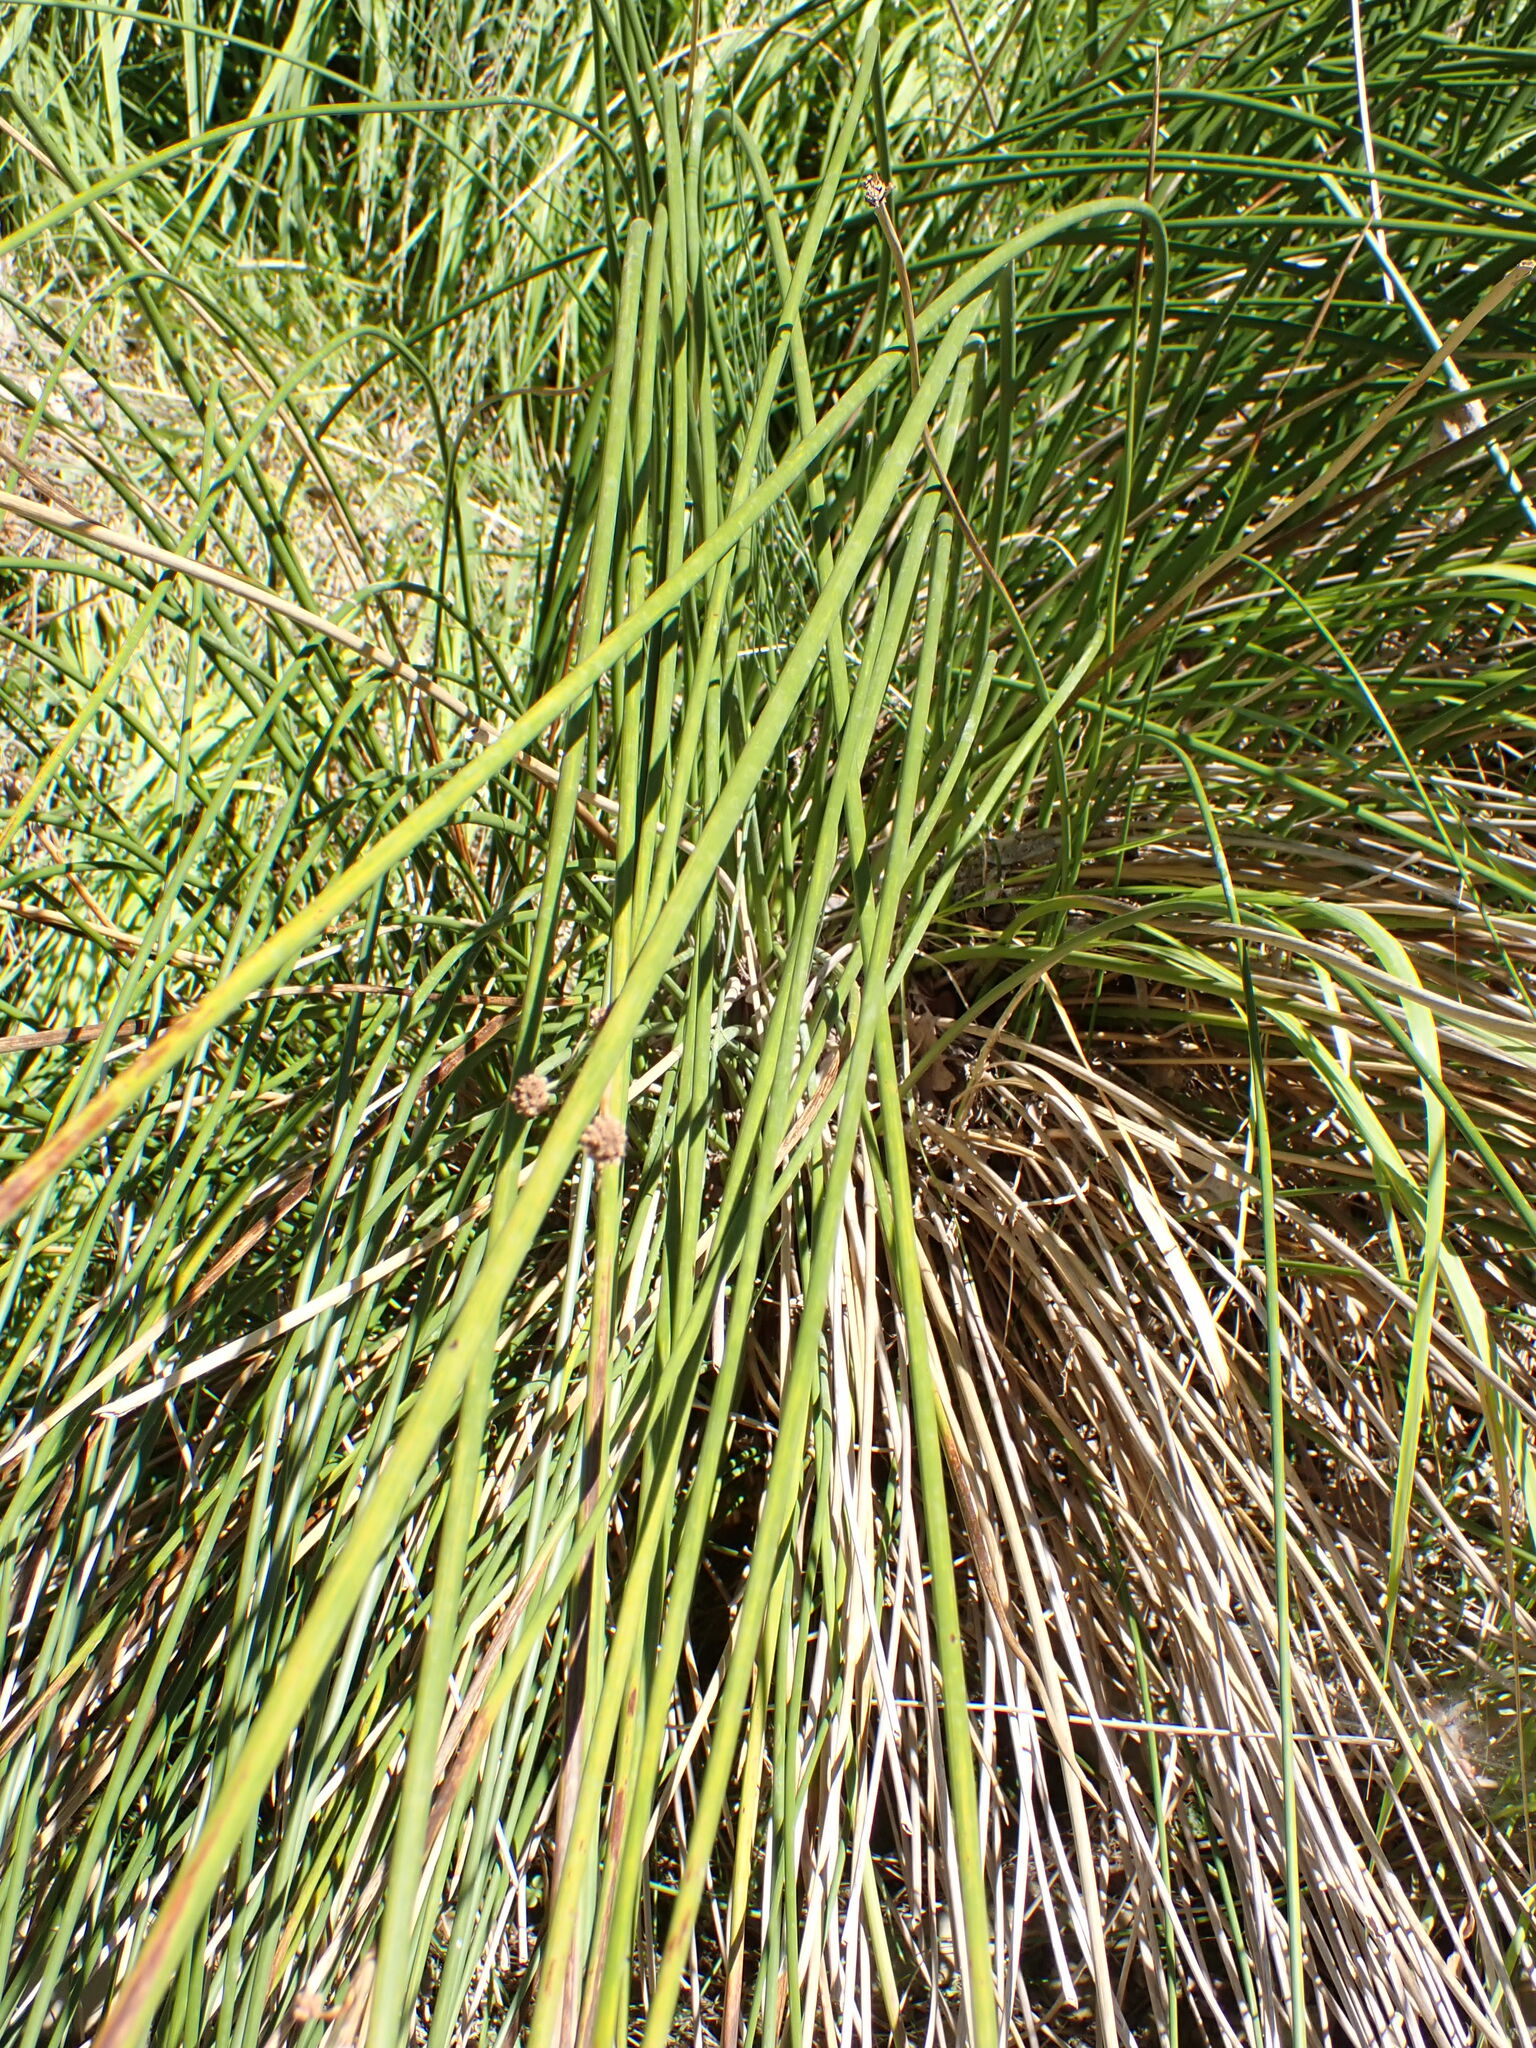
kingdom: Plantae
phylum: Tracheophyta
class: Liliopsida
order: Poales
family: Cyperaceae
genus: Scirpoides
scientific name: Scirpoides holoschoenus
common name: Round-headed club-rush
